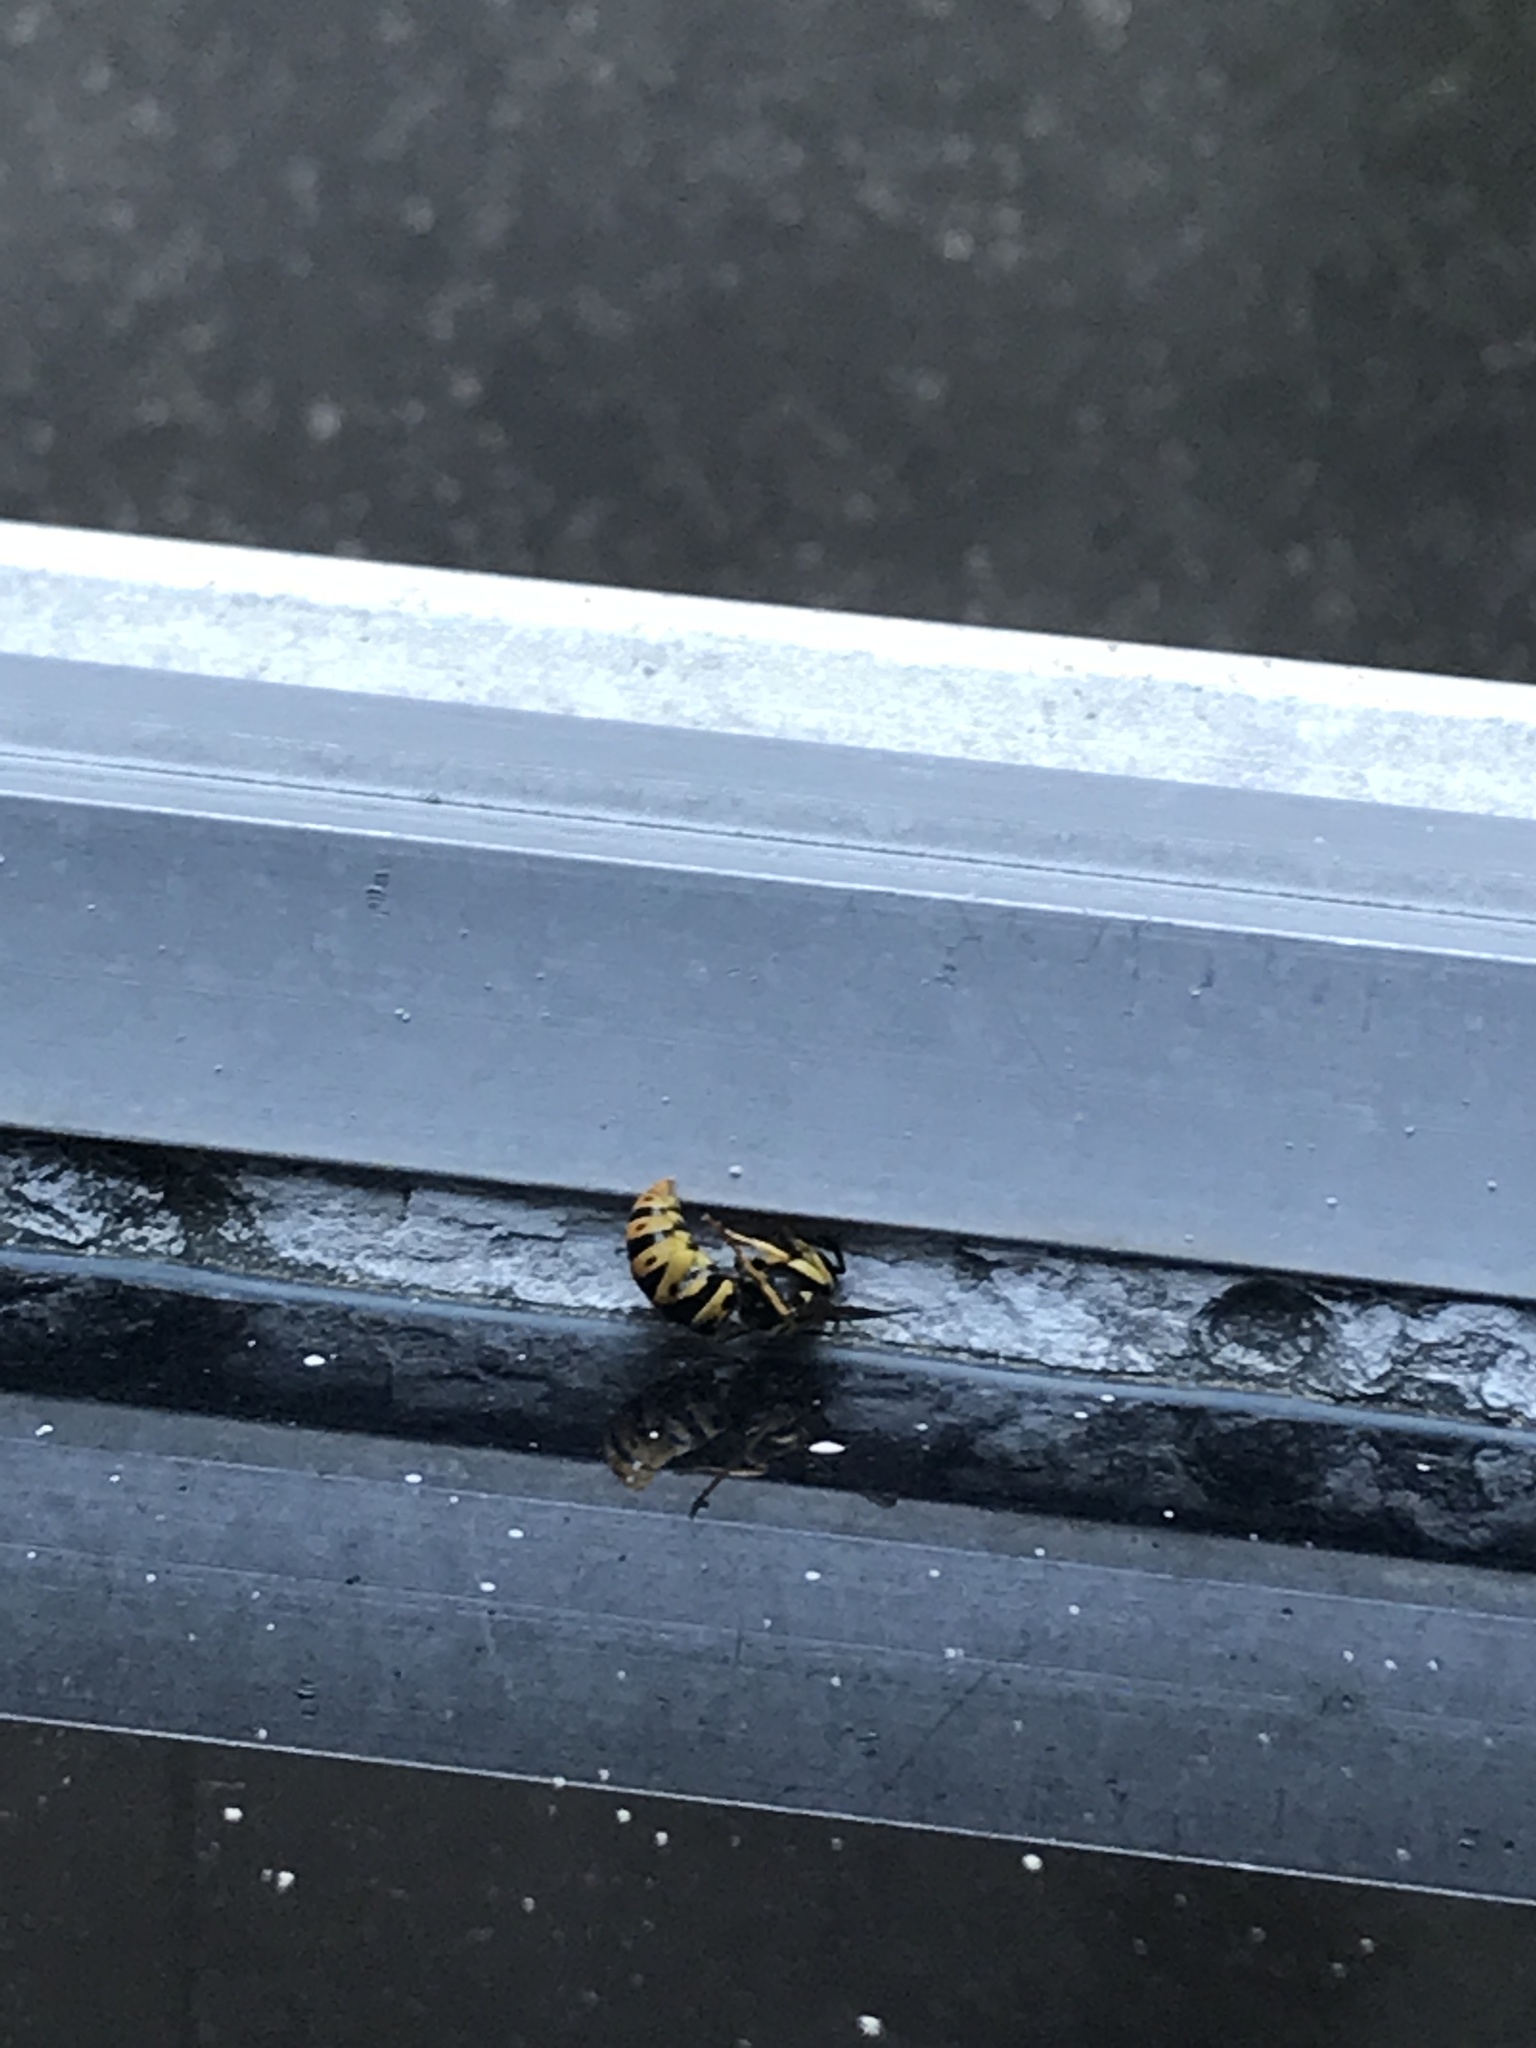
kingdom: Animalia
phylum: Arthropoda
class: Insecta
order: Hymenoptera
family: Vespidae
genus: Vespula
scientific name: Vespula maculifrons
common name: Eastern yellowjacket
